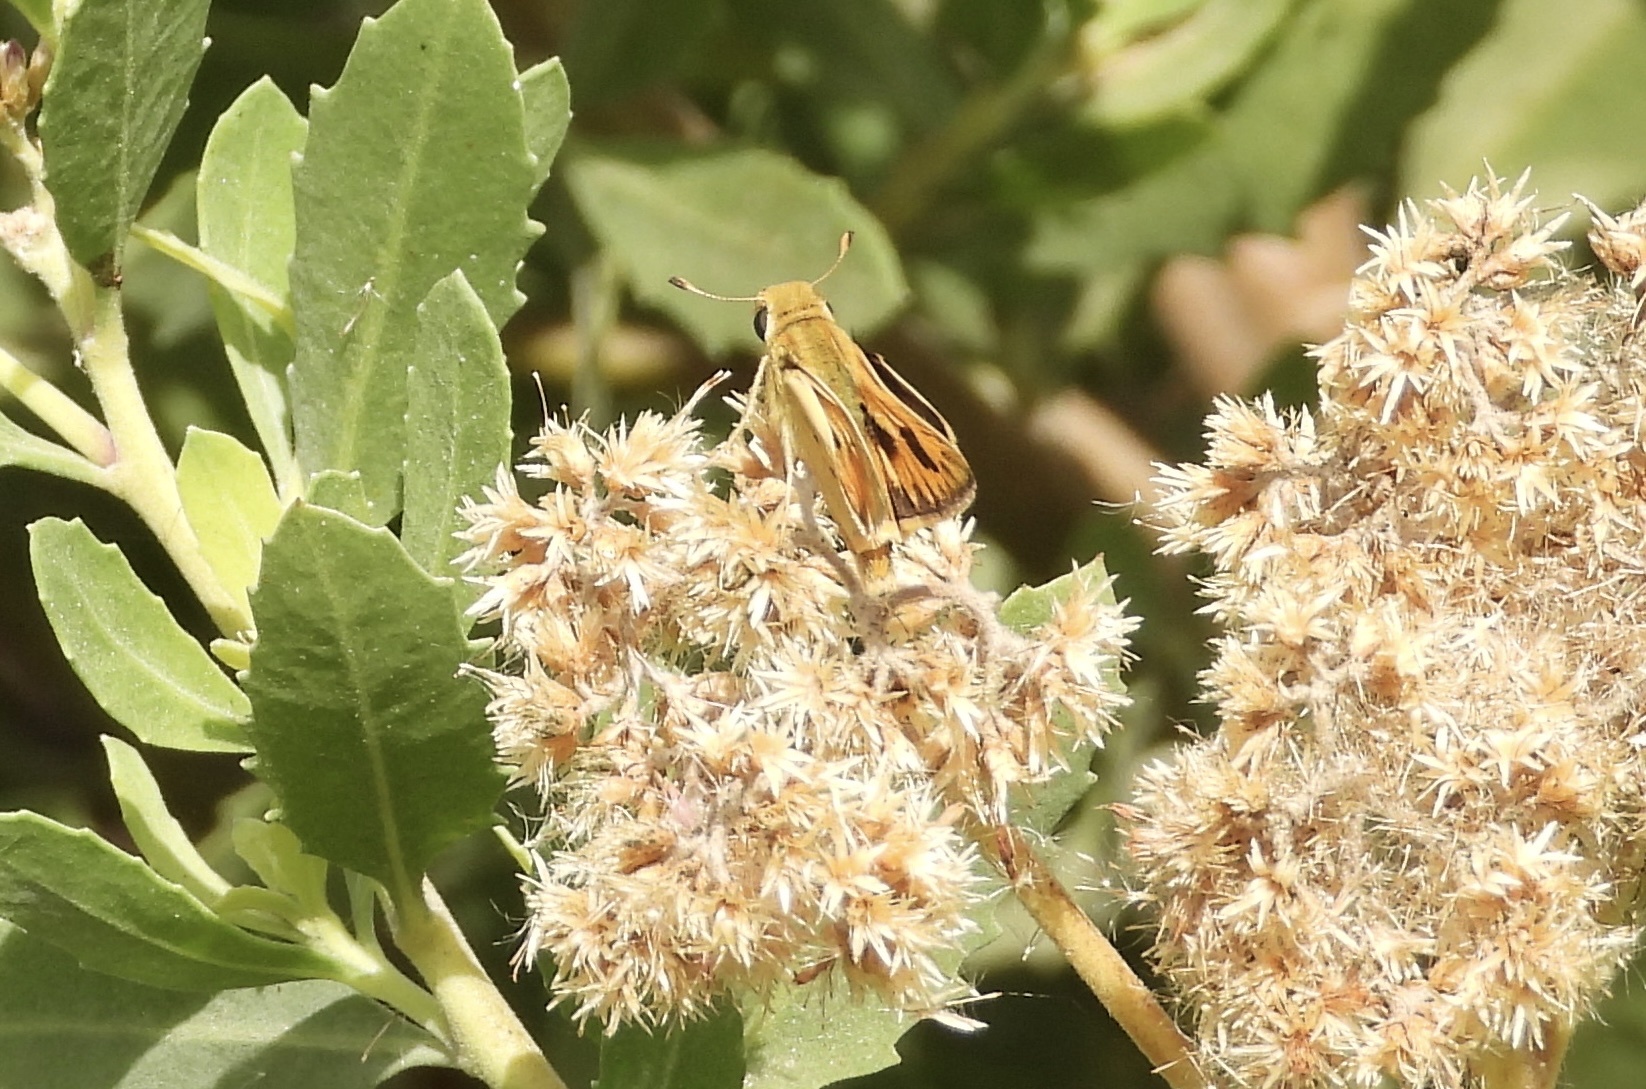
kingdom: Animalia
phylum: Arthropoda
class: Insecta
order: Lepidoptera
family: Hesperiidae
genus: Hylephila
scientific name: Hylephila phyleus
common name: Fiery skipper
